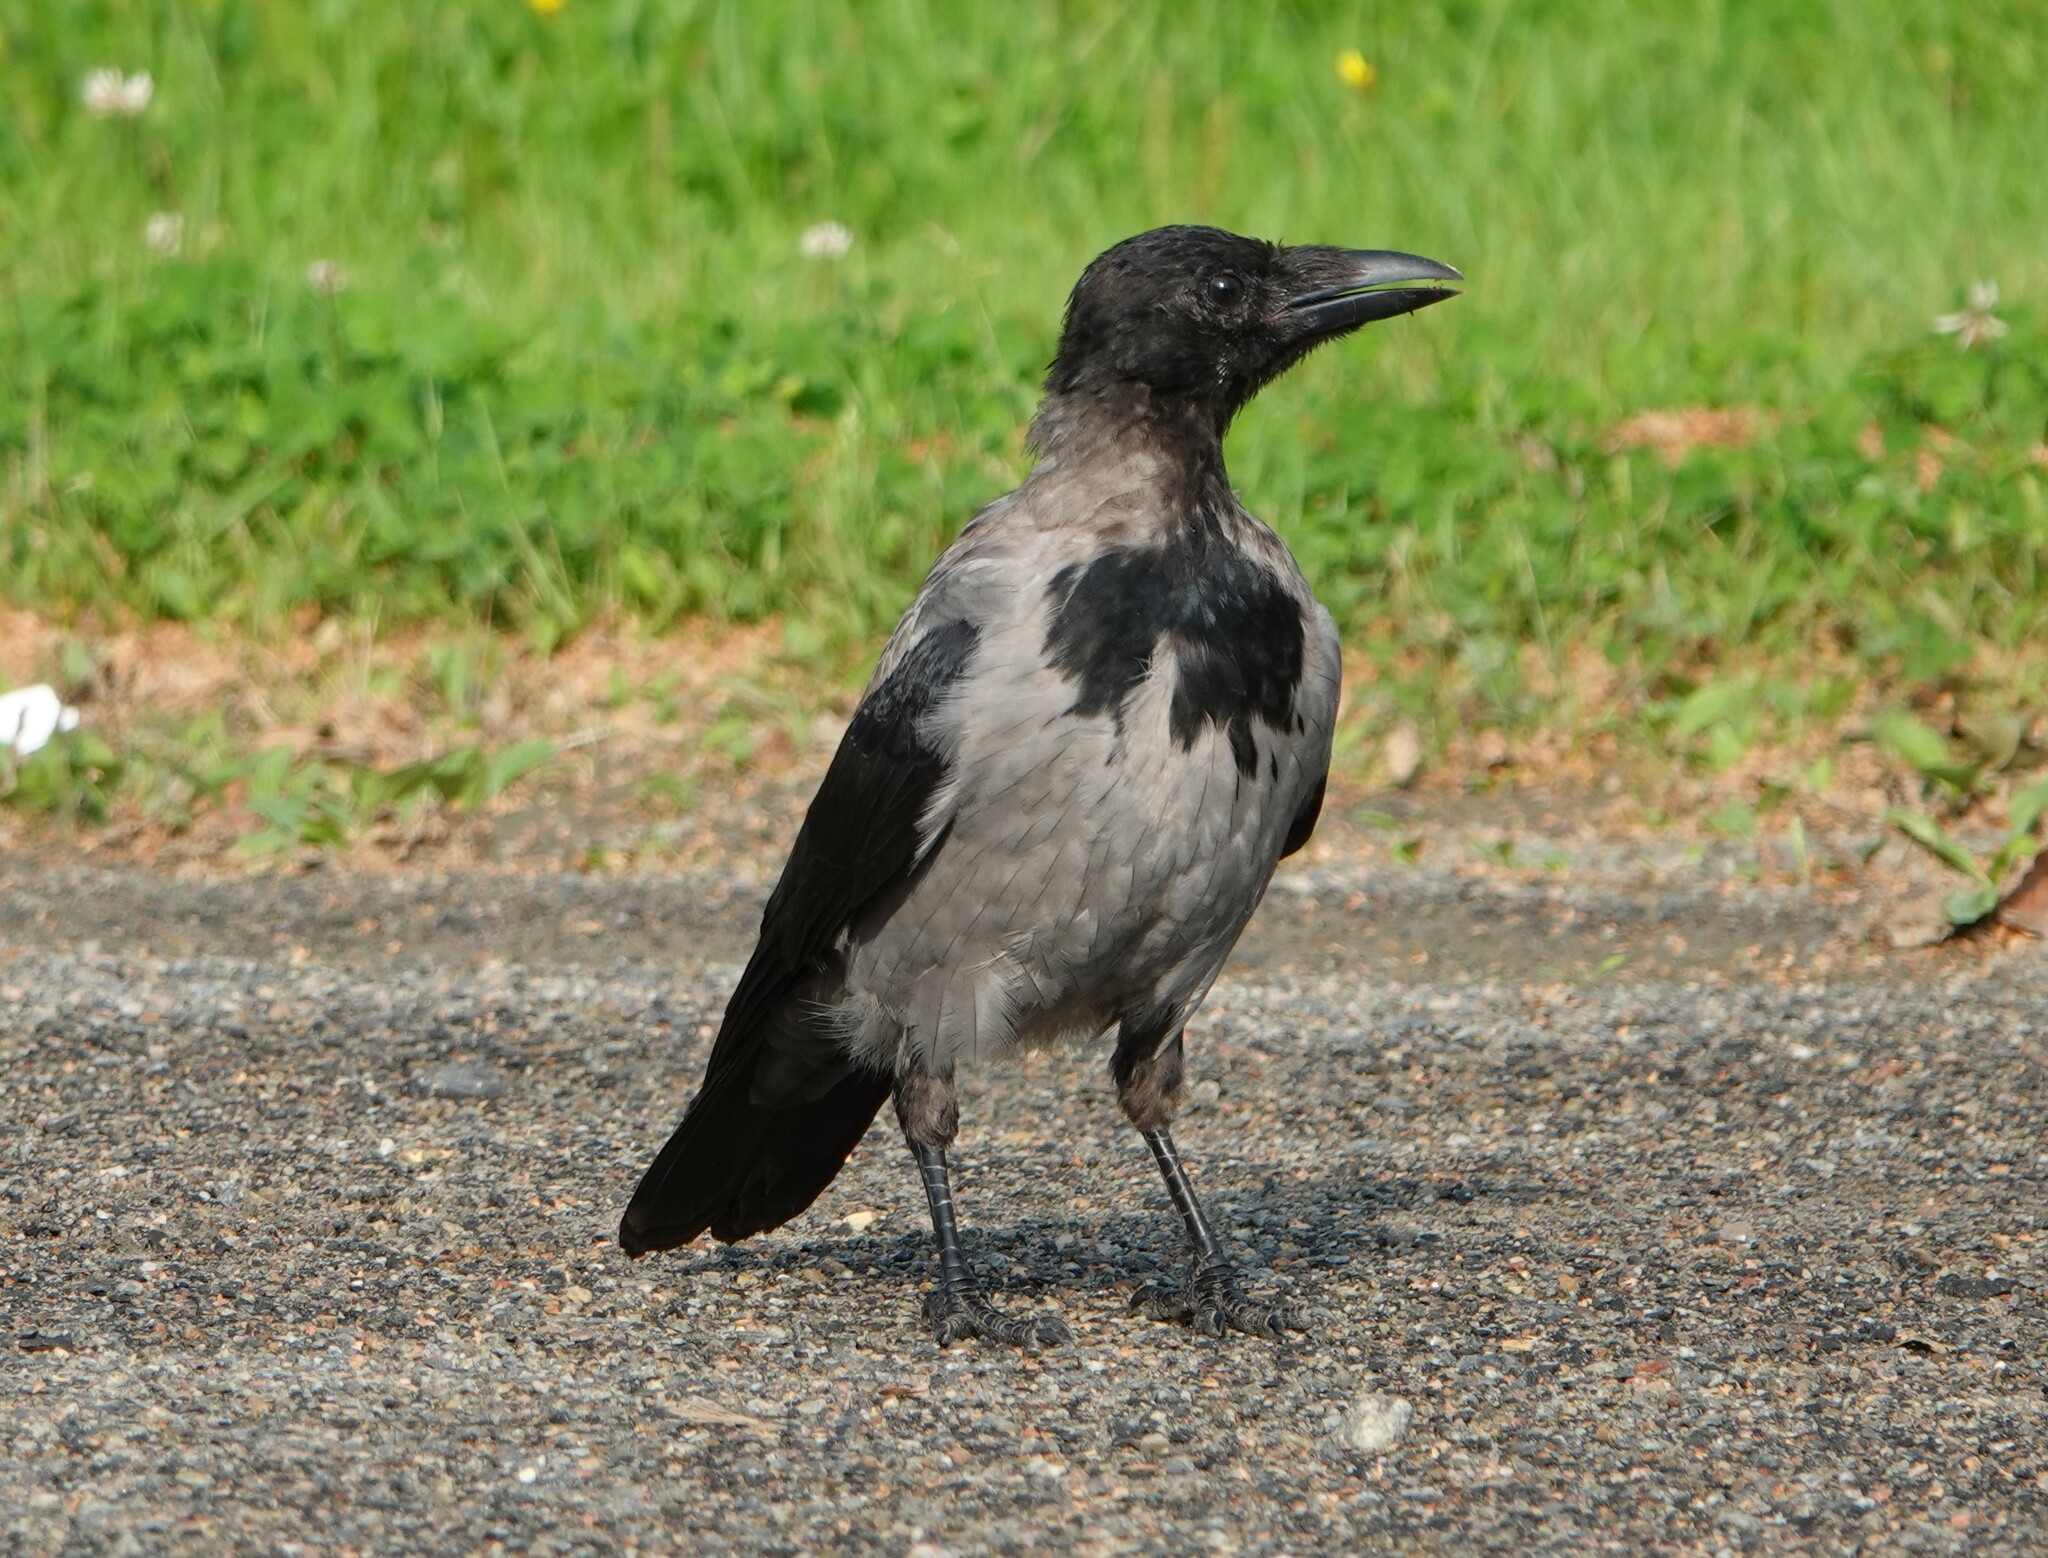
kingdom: Animalia
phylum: Chordata
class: Aves
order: Passeriformes
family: Corvidae
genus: Corvus
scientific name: Corvus cornix
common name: Hooded crow
